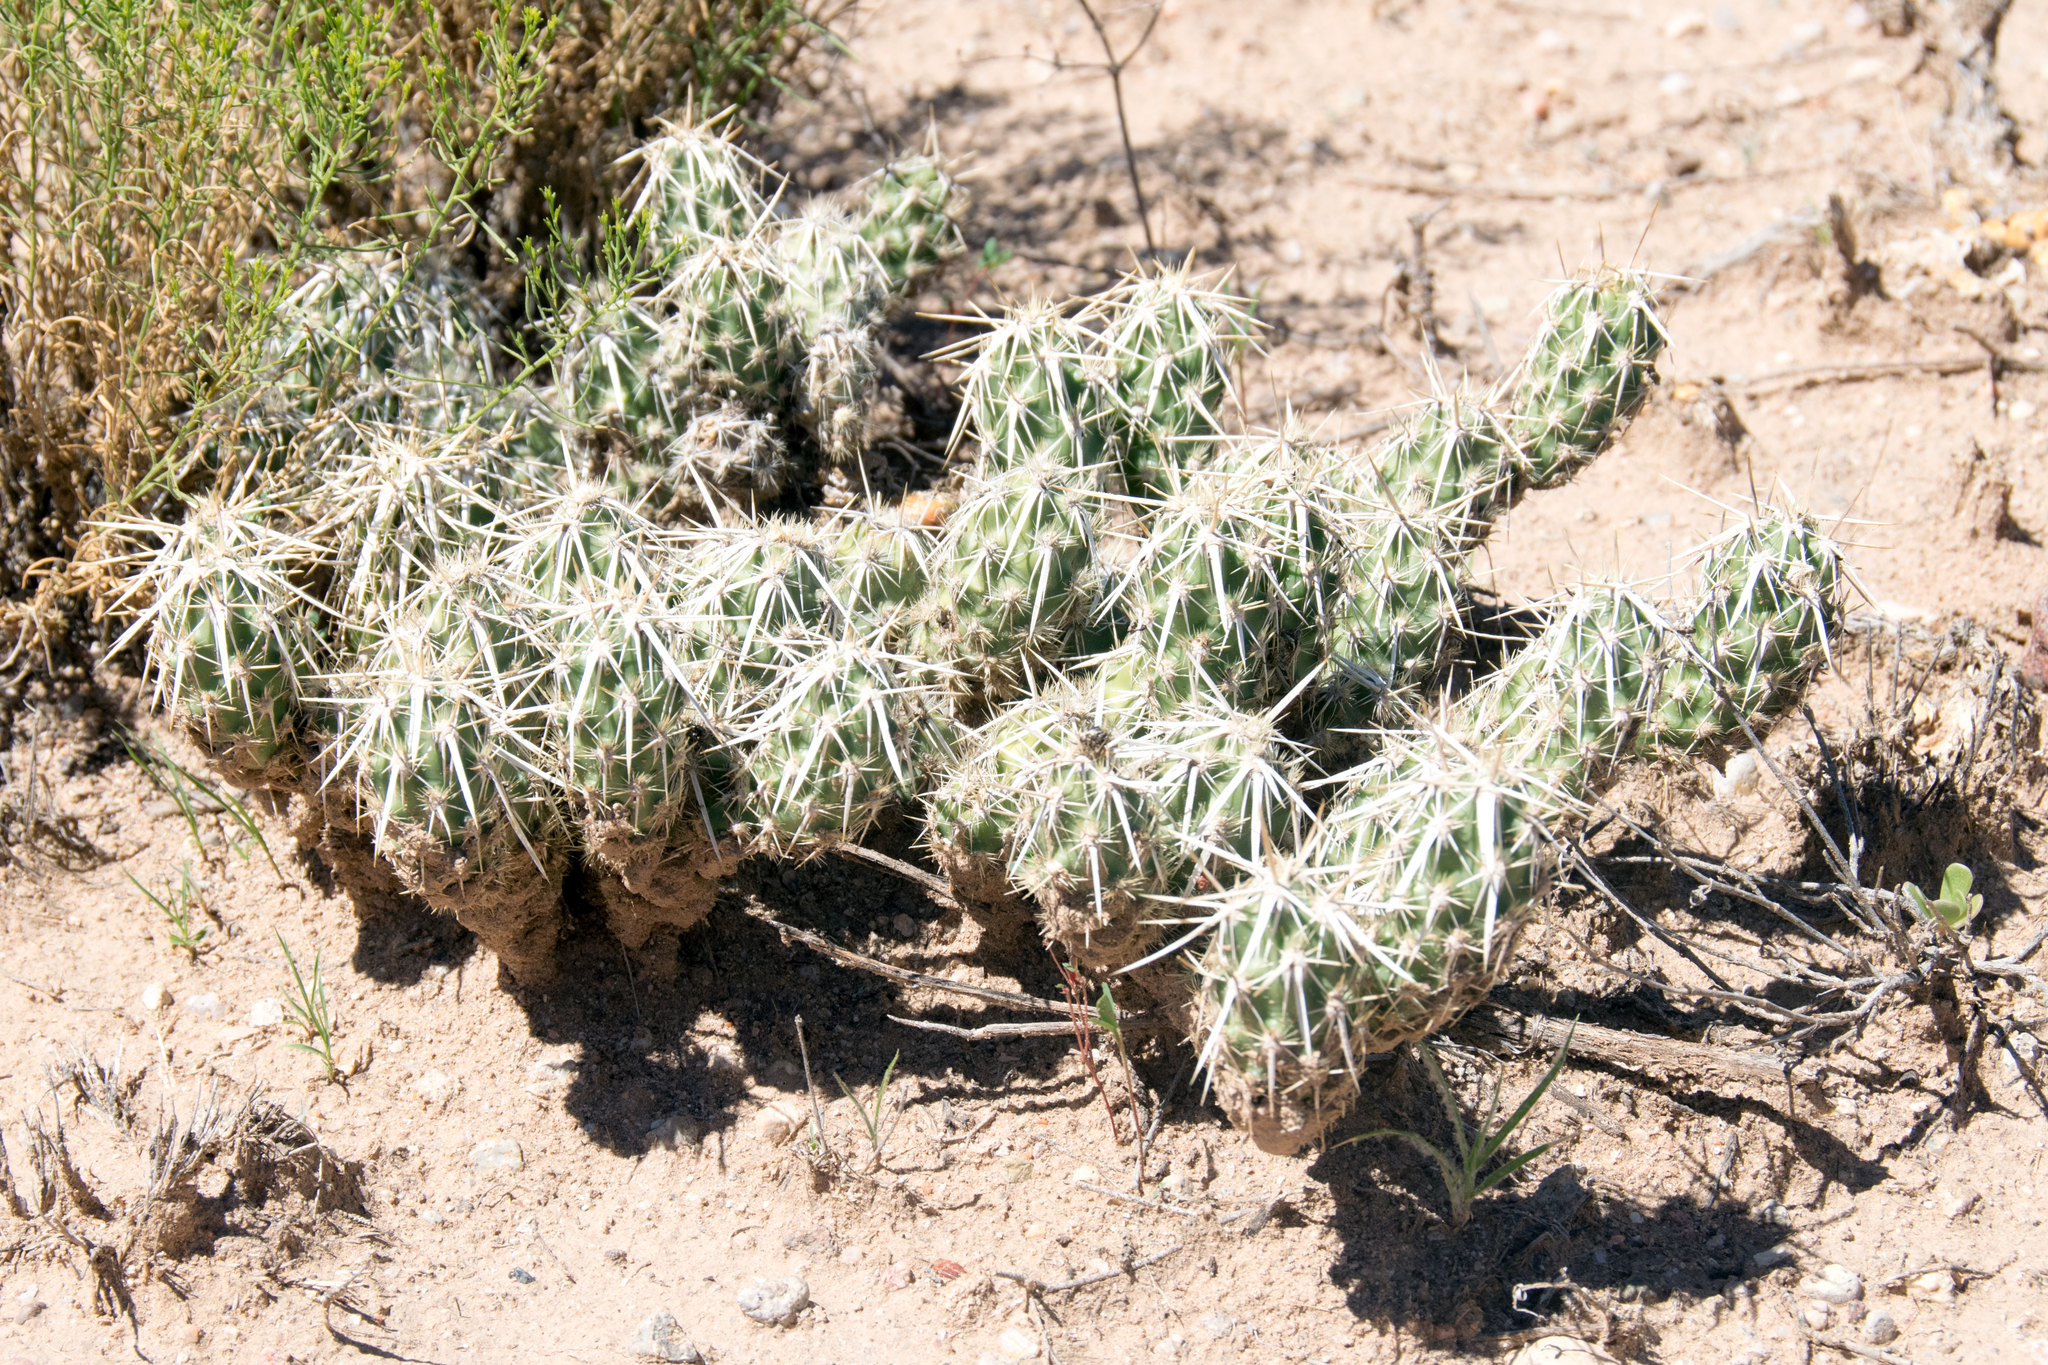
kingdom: Plantae
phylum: Tracheophyta
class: Magnoliopsida
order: Caryophyllales
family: Cactaceae
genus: Grusonia
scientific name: Grusonia clavata
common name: Club cholla
